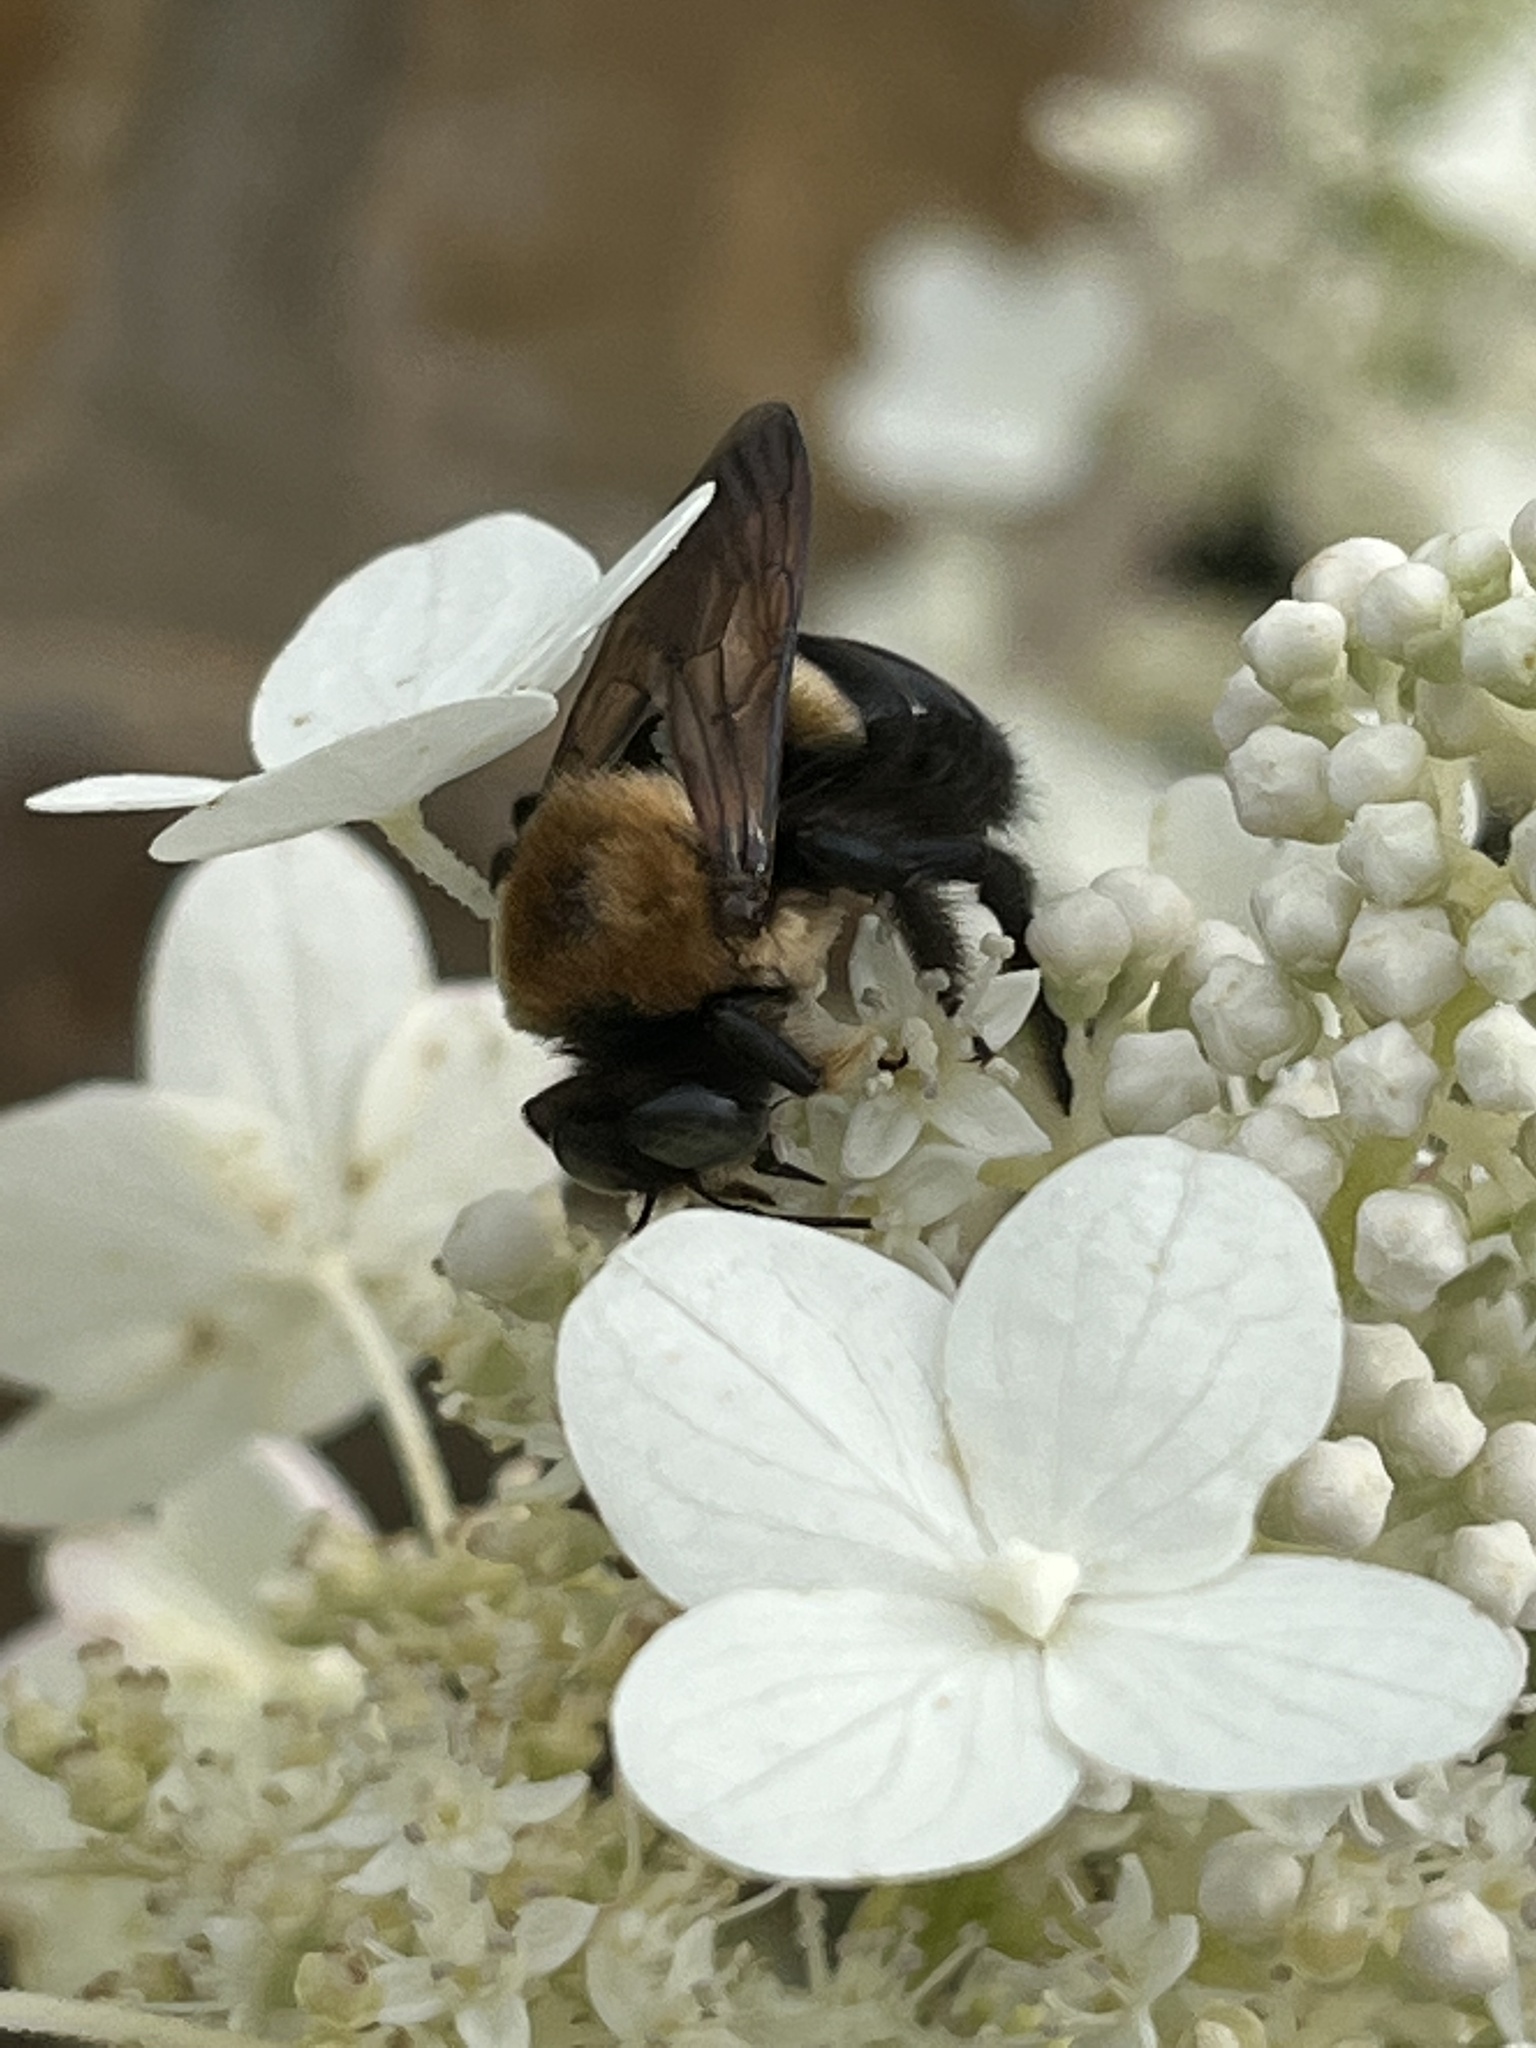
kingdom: Animalia
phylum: Arthropoda
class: Insecta
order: Hymenoptera
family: Apidae
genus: Xylocopa
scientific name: Xylocopa virginica
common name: Carpenter bee
